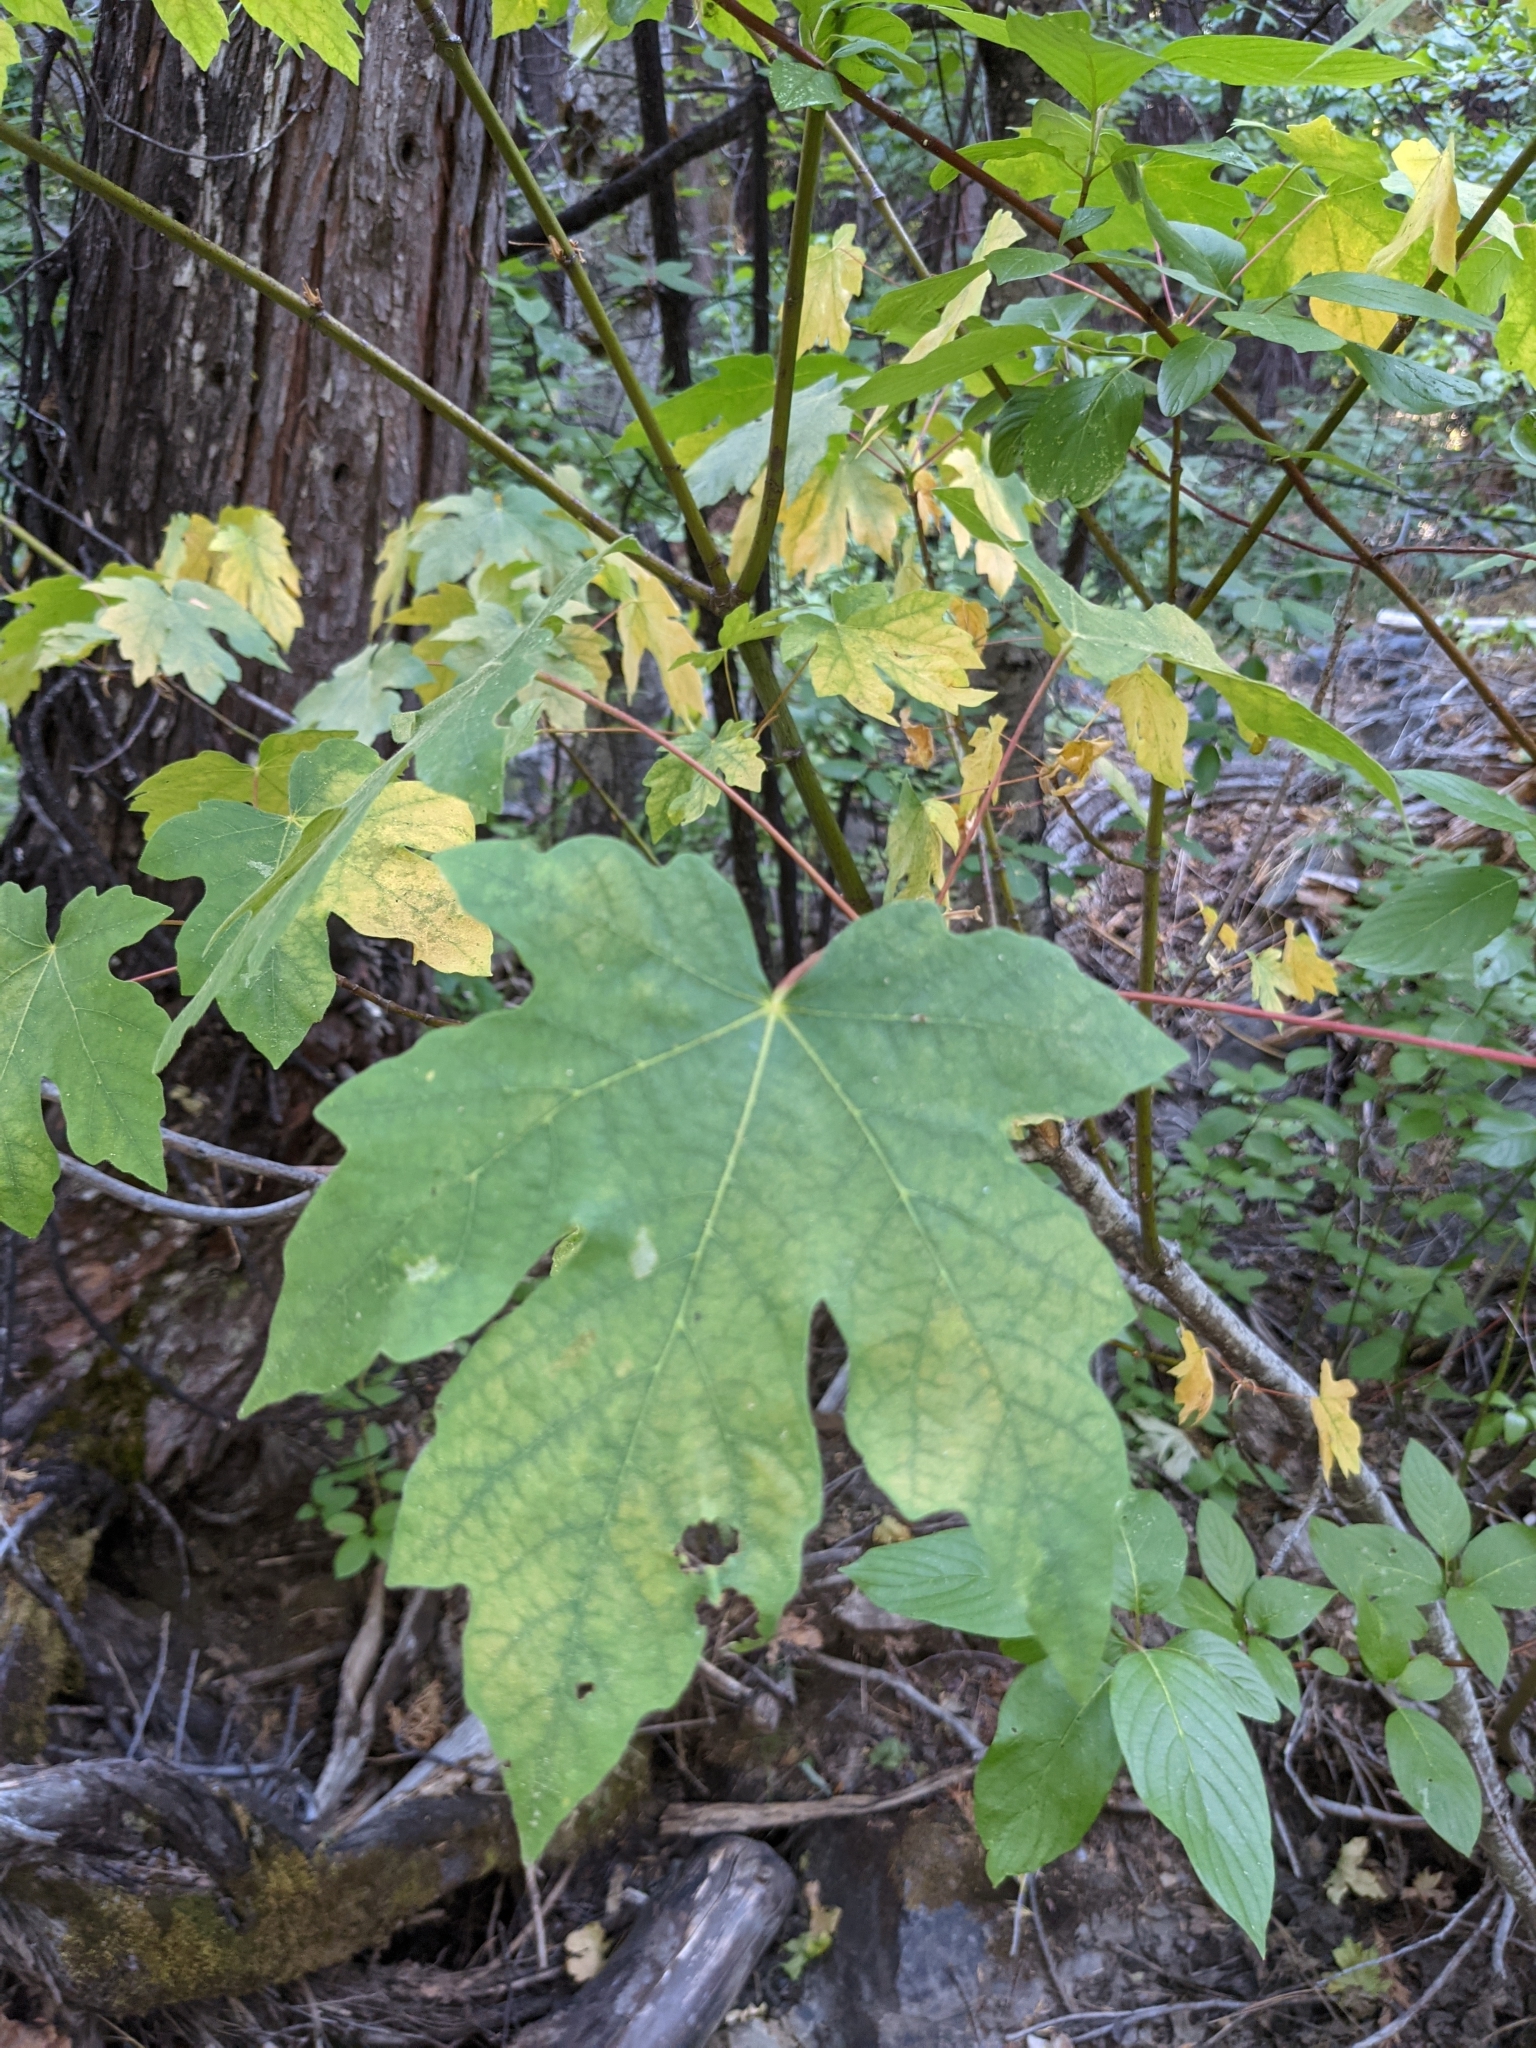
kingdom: Plantae
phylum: Tracheophyta
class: Magnoliopsida
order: Sapindales
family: Sapindaceae
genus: Acer
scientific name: Acer macrophyllum
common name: Oregon maple
